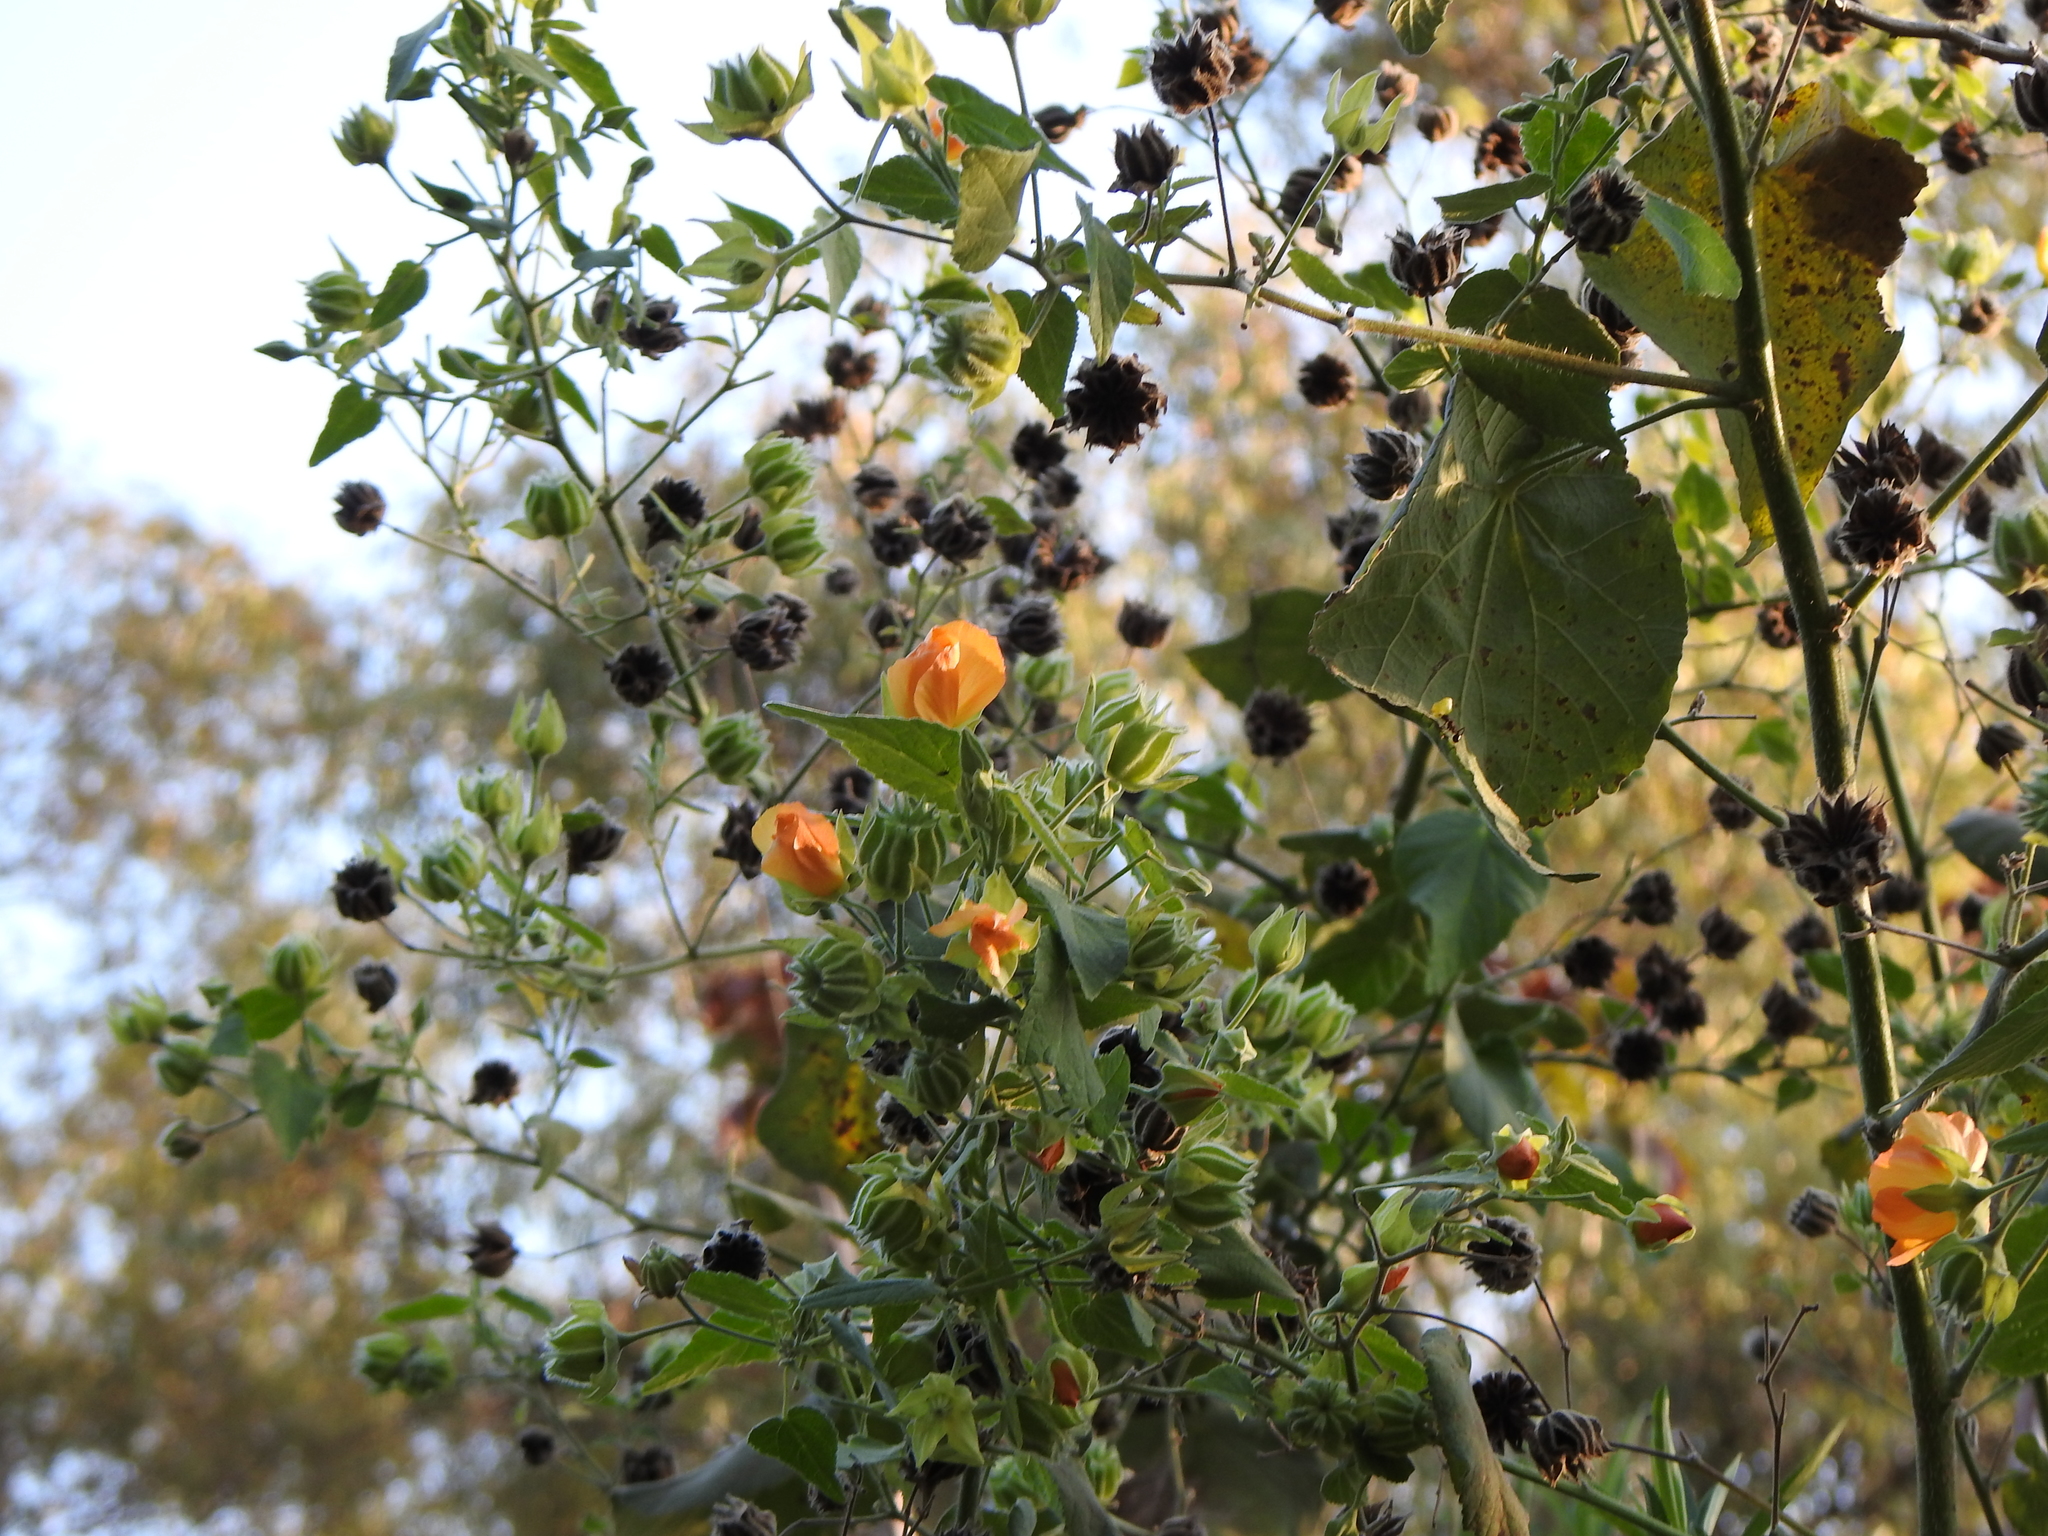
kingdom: Plantae
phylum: Tracheophyta
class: Magnoliopsida
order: Malvales
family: Malvaceae
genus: Abutilon
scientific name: Abutilon grandifolium
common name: Hairy abutilon
